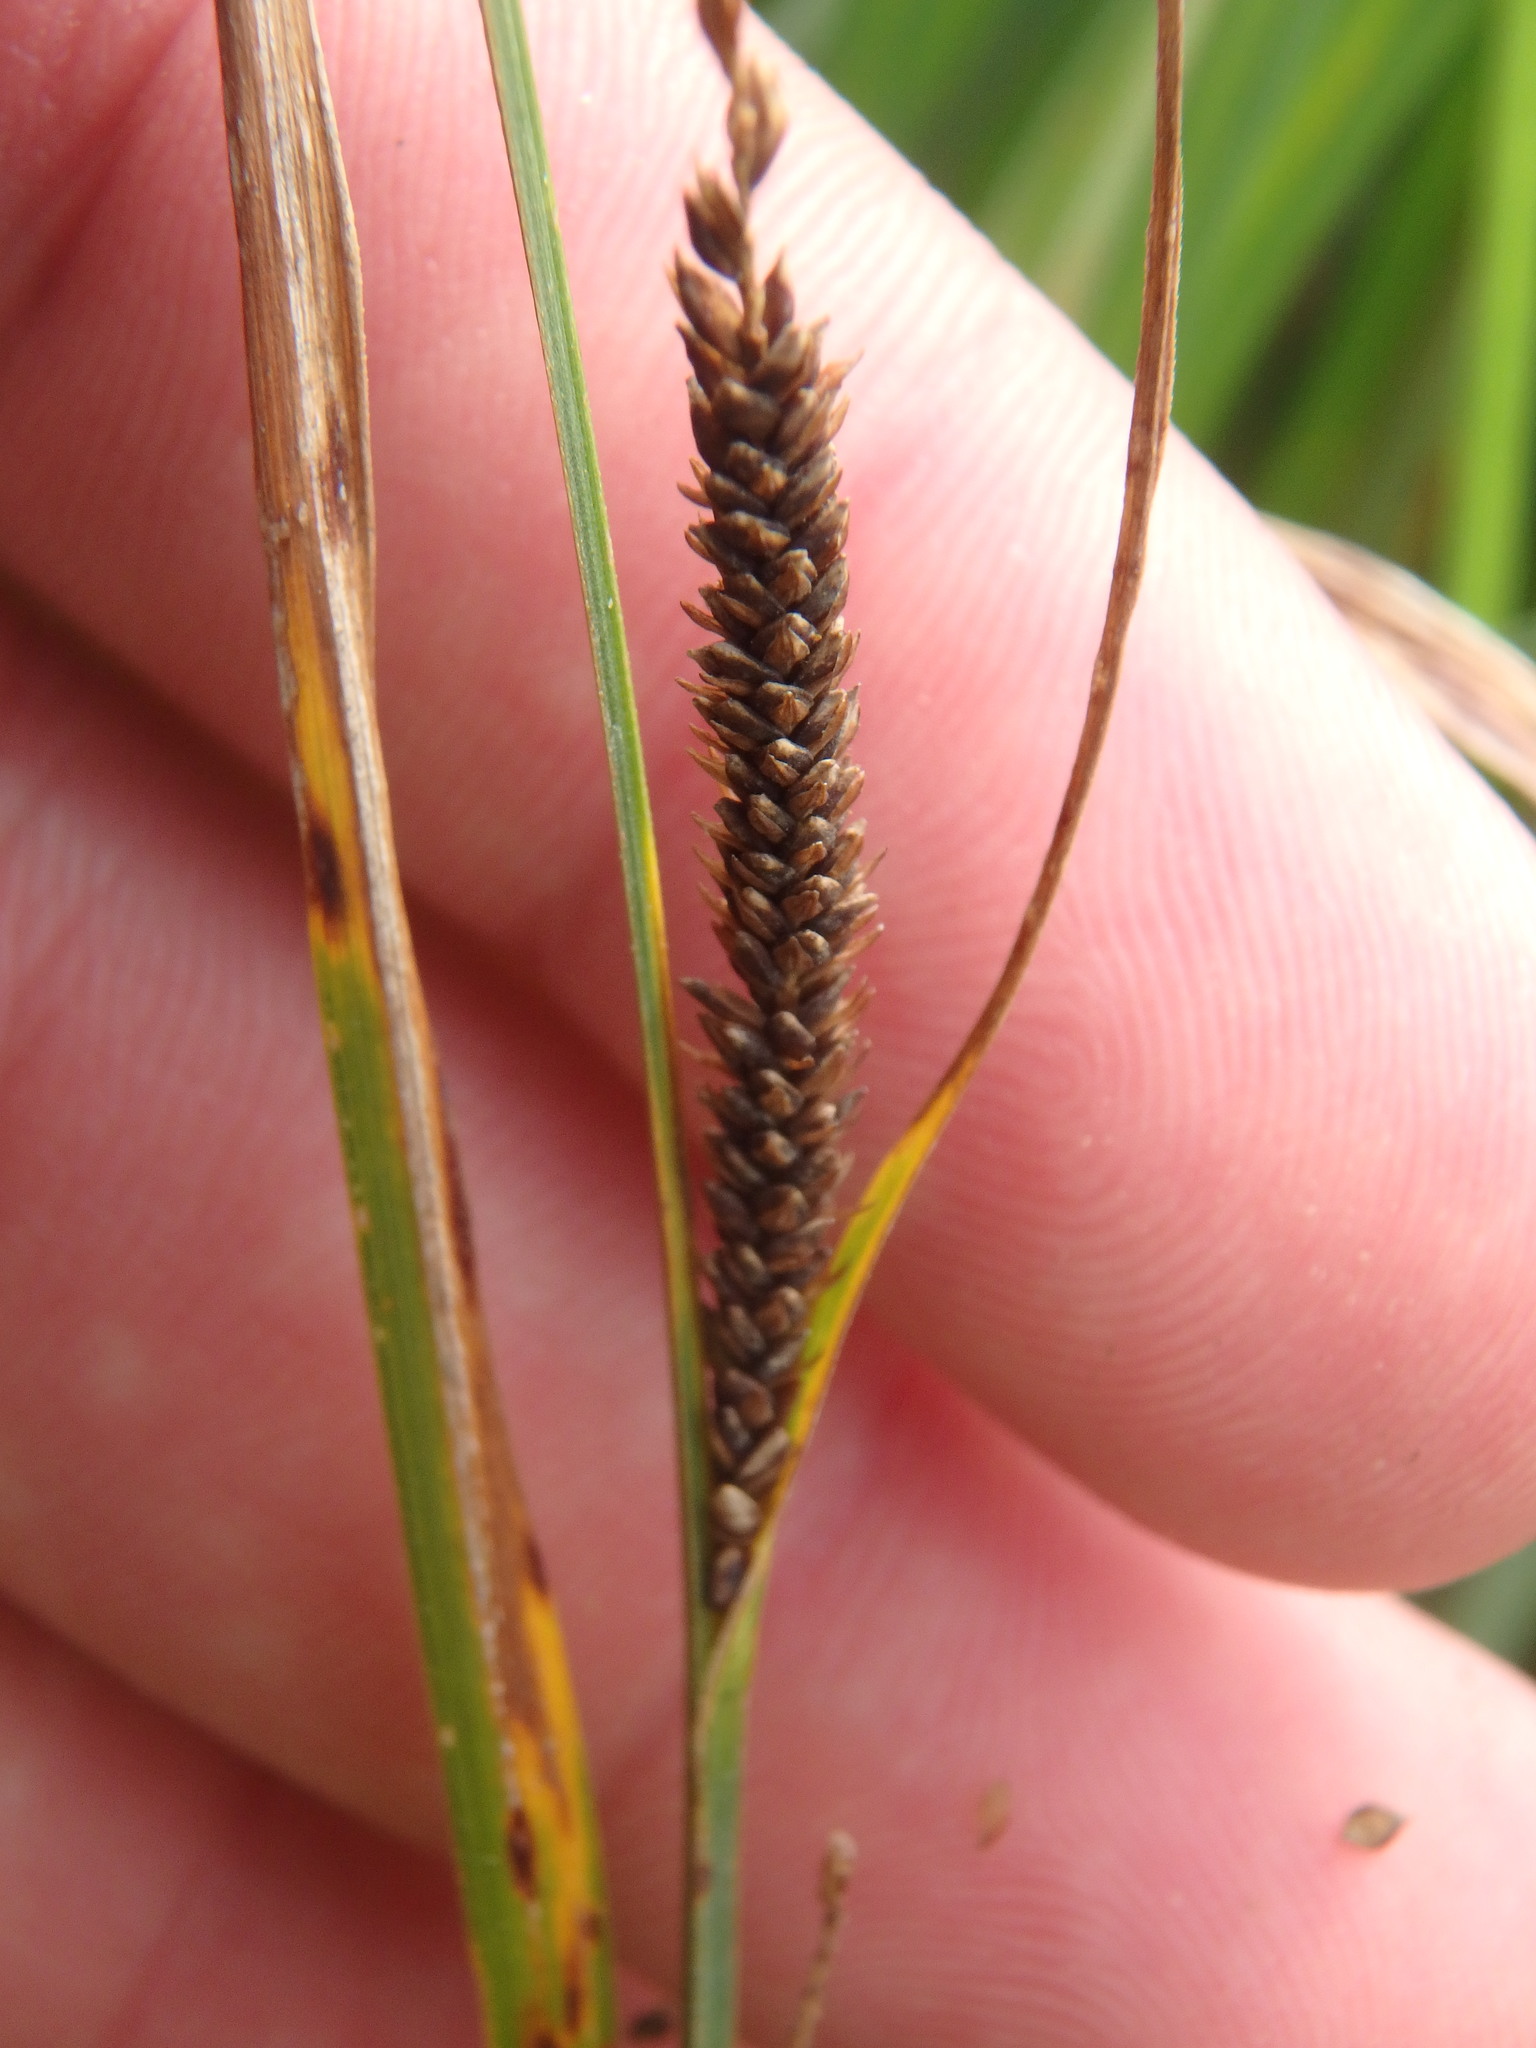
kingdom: Plantae
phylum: Tracheophyta
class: Liliopsida
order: Poales
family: Cyperaceae
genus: Carex
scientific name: Carex stricta
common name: Hummock sedge
